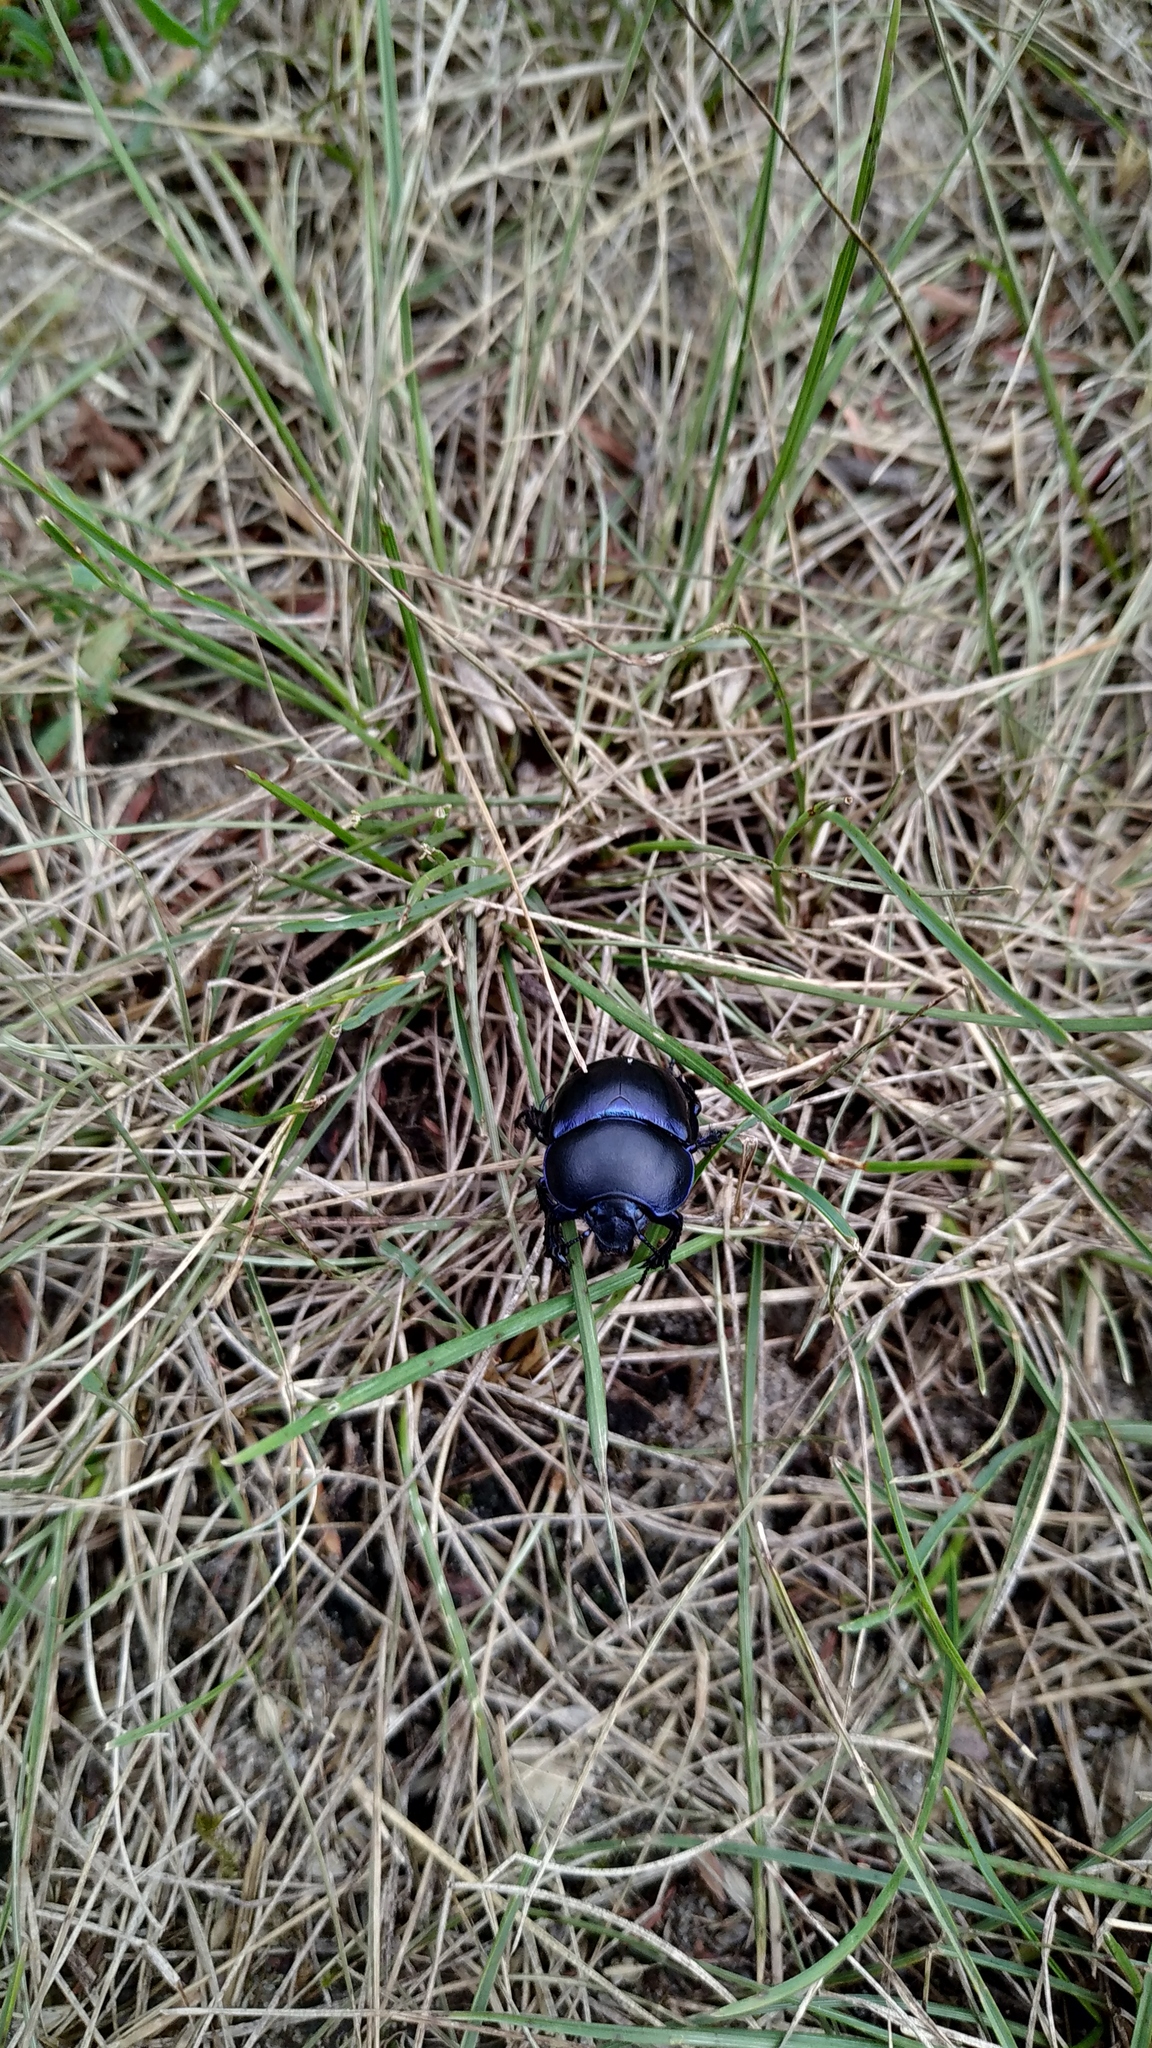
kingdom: Animalia
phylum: Arthropoda
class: Insecta
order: Coleoptera
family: Geotrupidae
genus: Trypocopris
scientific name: Trypocopris vernalis
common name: Spring dumbledor
